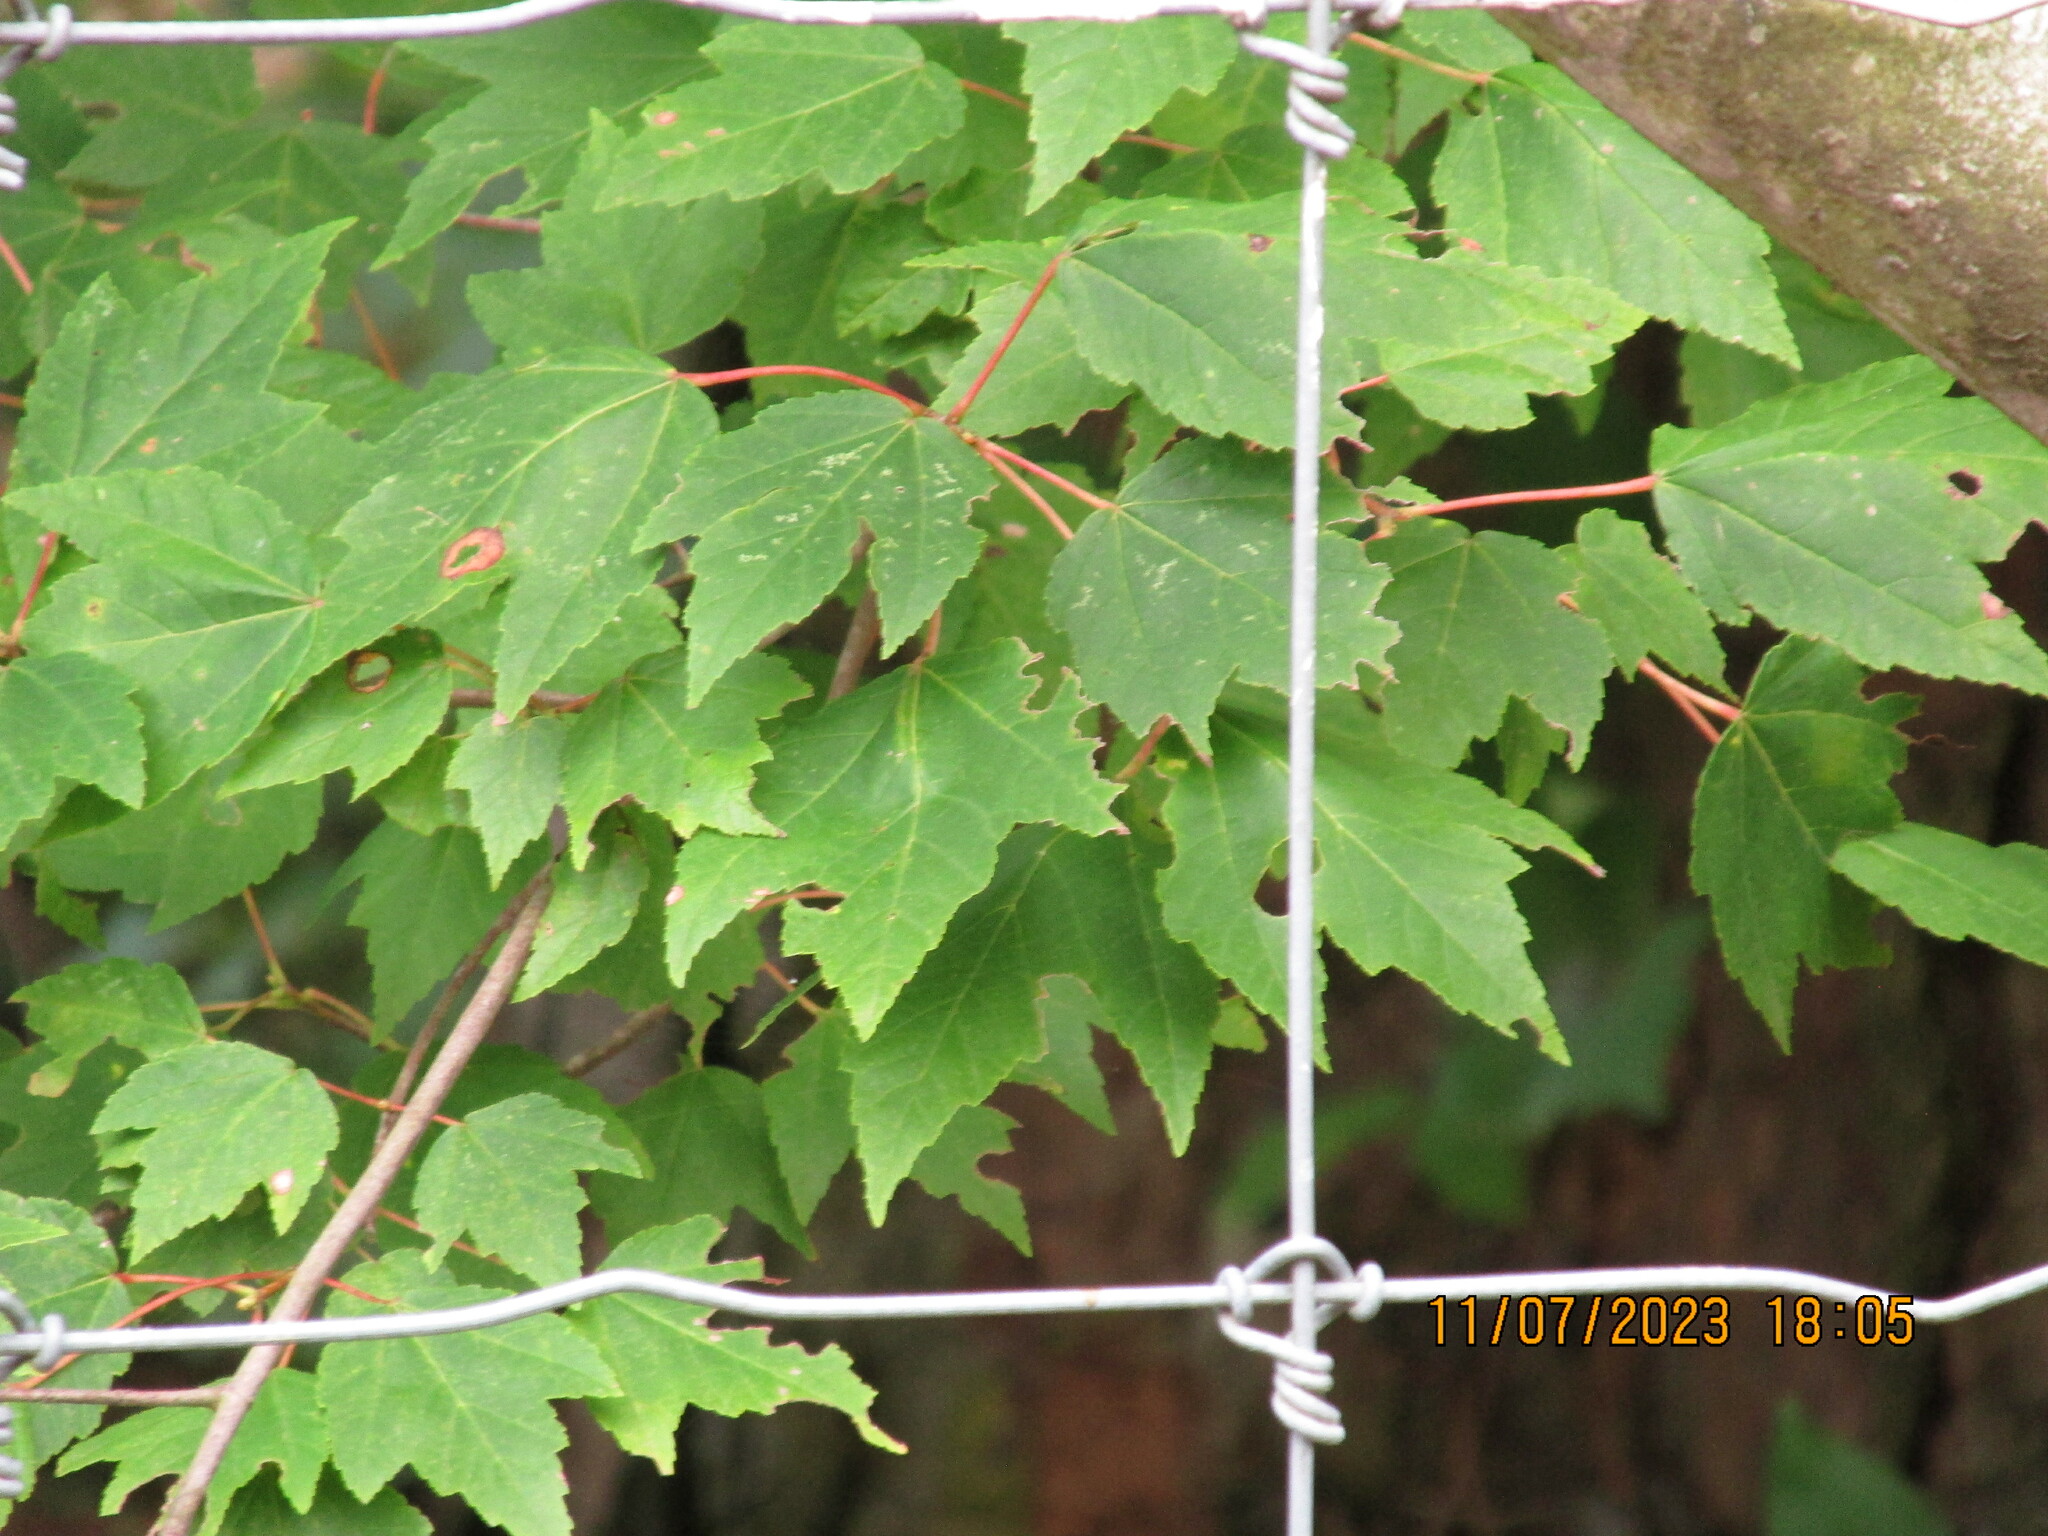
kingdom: Plantae
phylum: Tracheophyta
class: Magnoliopsida
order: Sapindales
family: Sapindaceae
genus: Acer
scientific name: Acer rubrum
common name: Red maple
